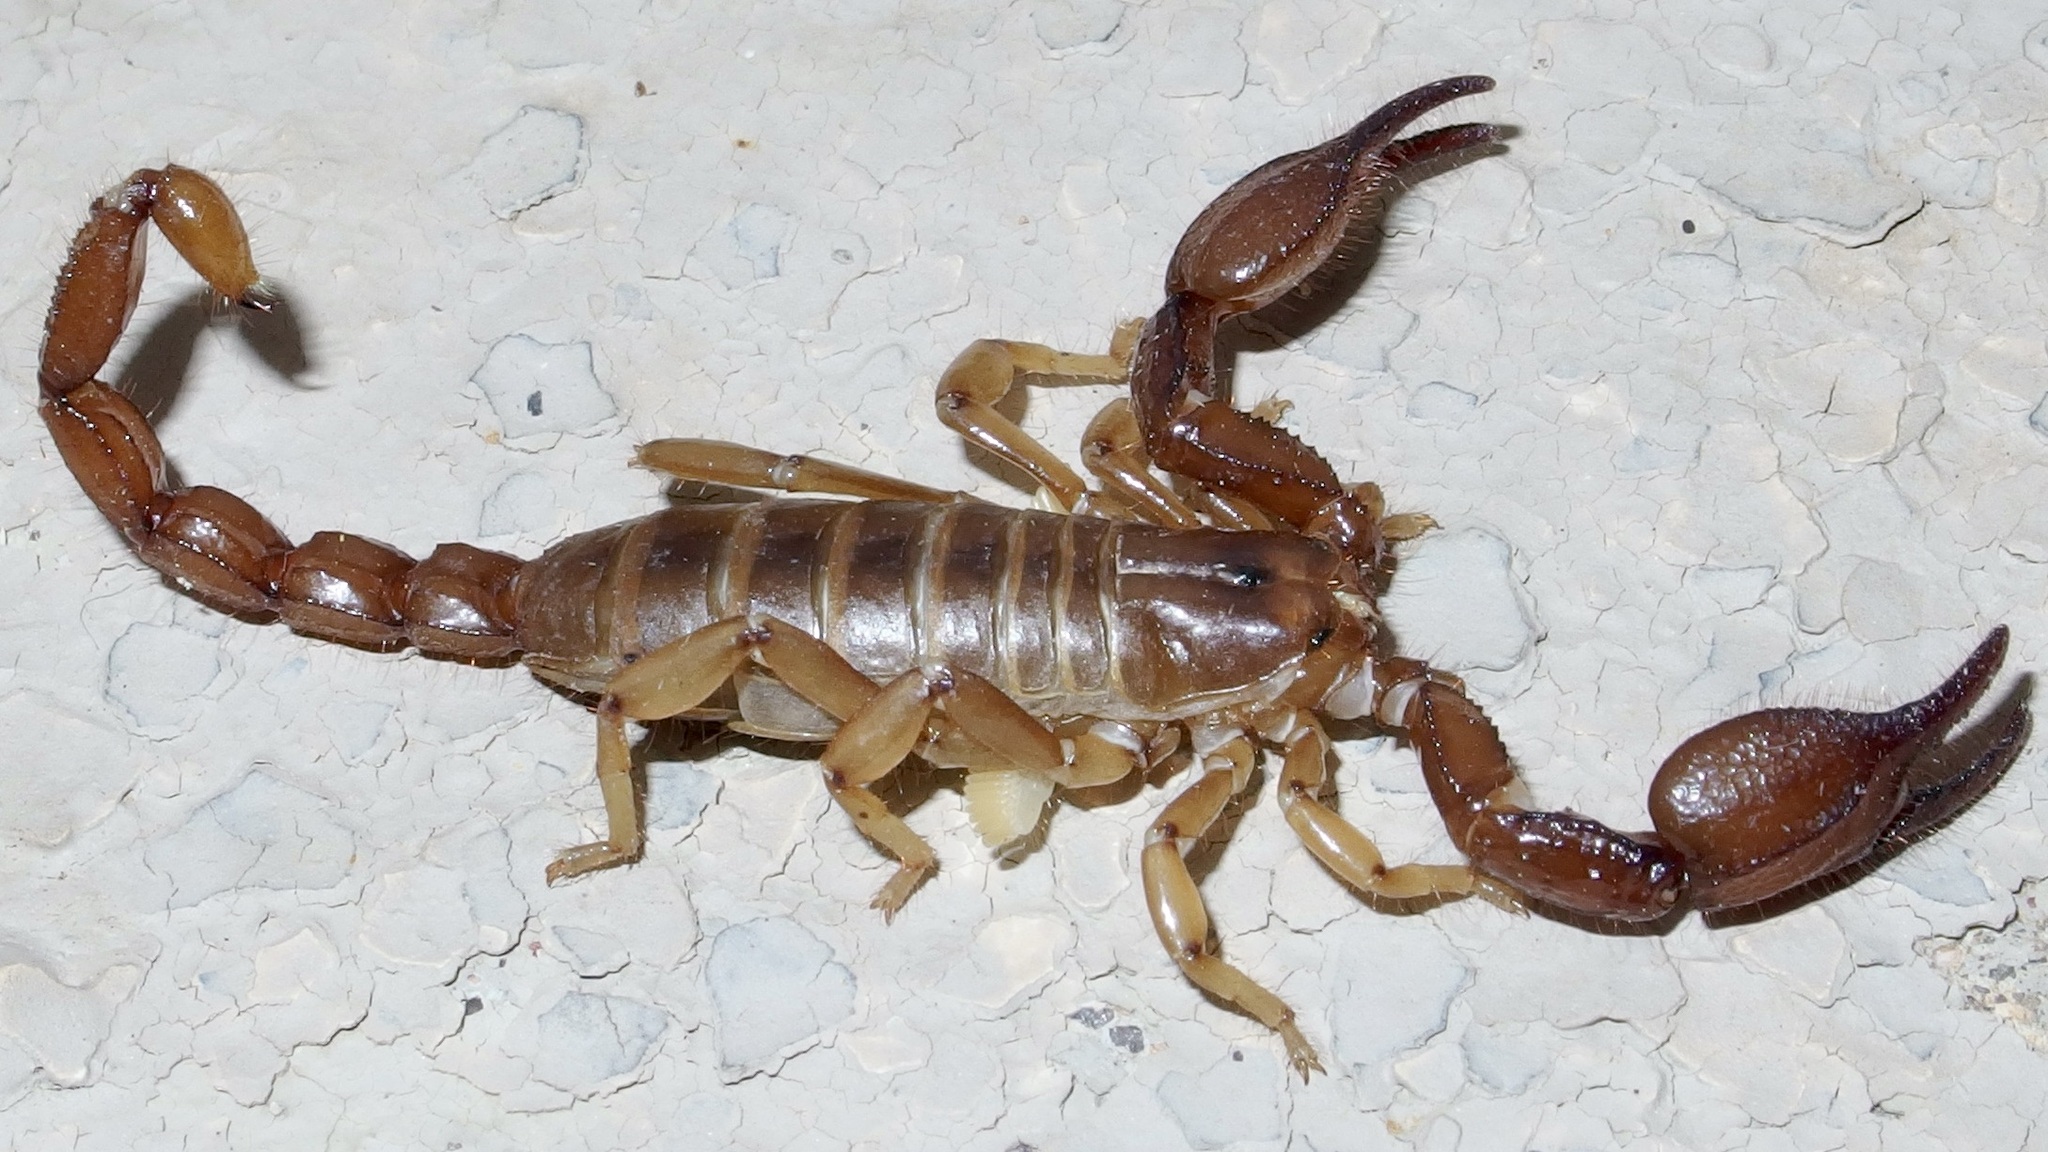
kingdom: Animalia
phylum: Arthropoda
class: Arachnida
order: Scorpiones
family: Diplocentridae
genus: Diplocentrus
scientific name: Diplocentrus spitzeri
